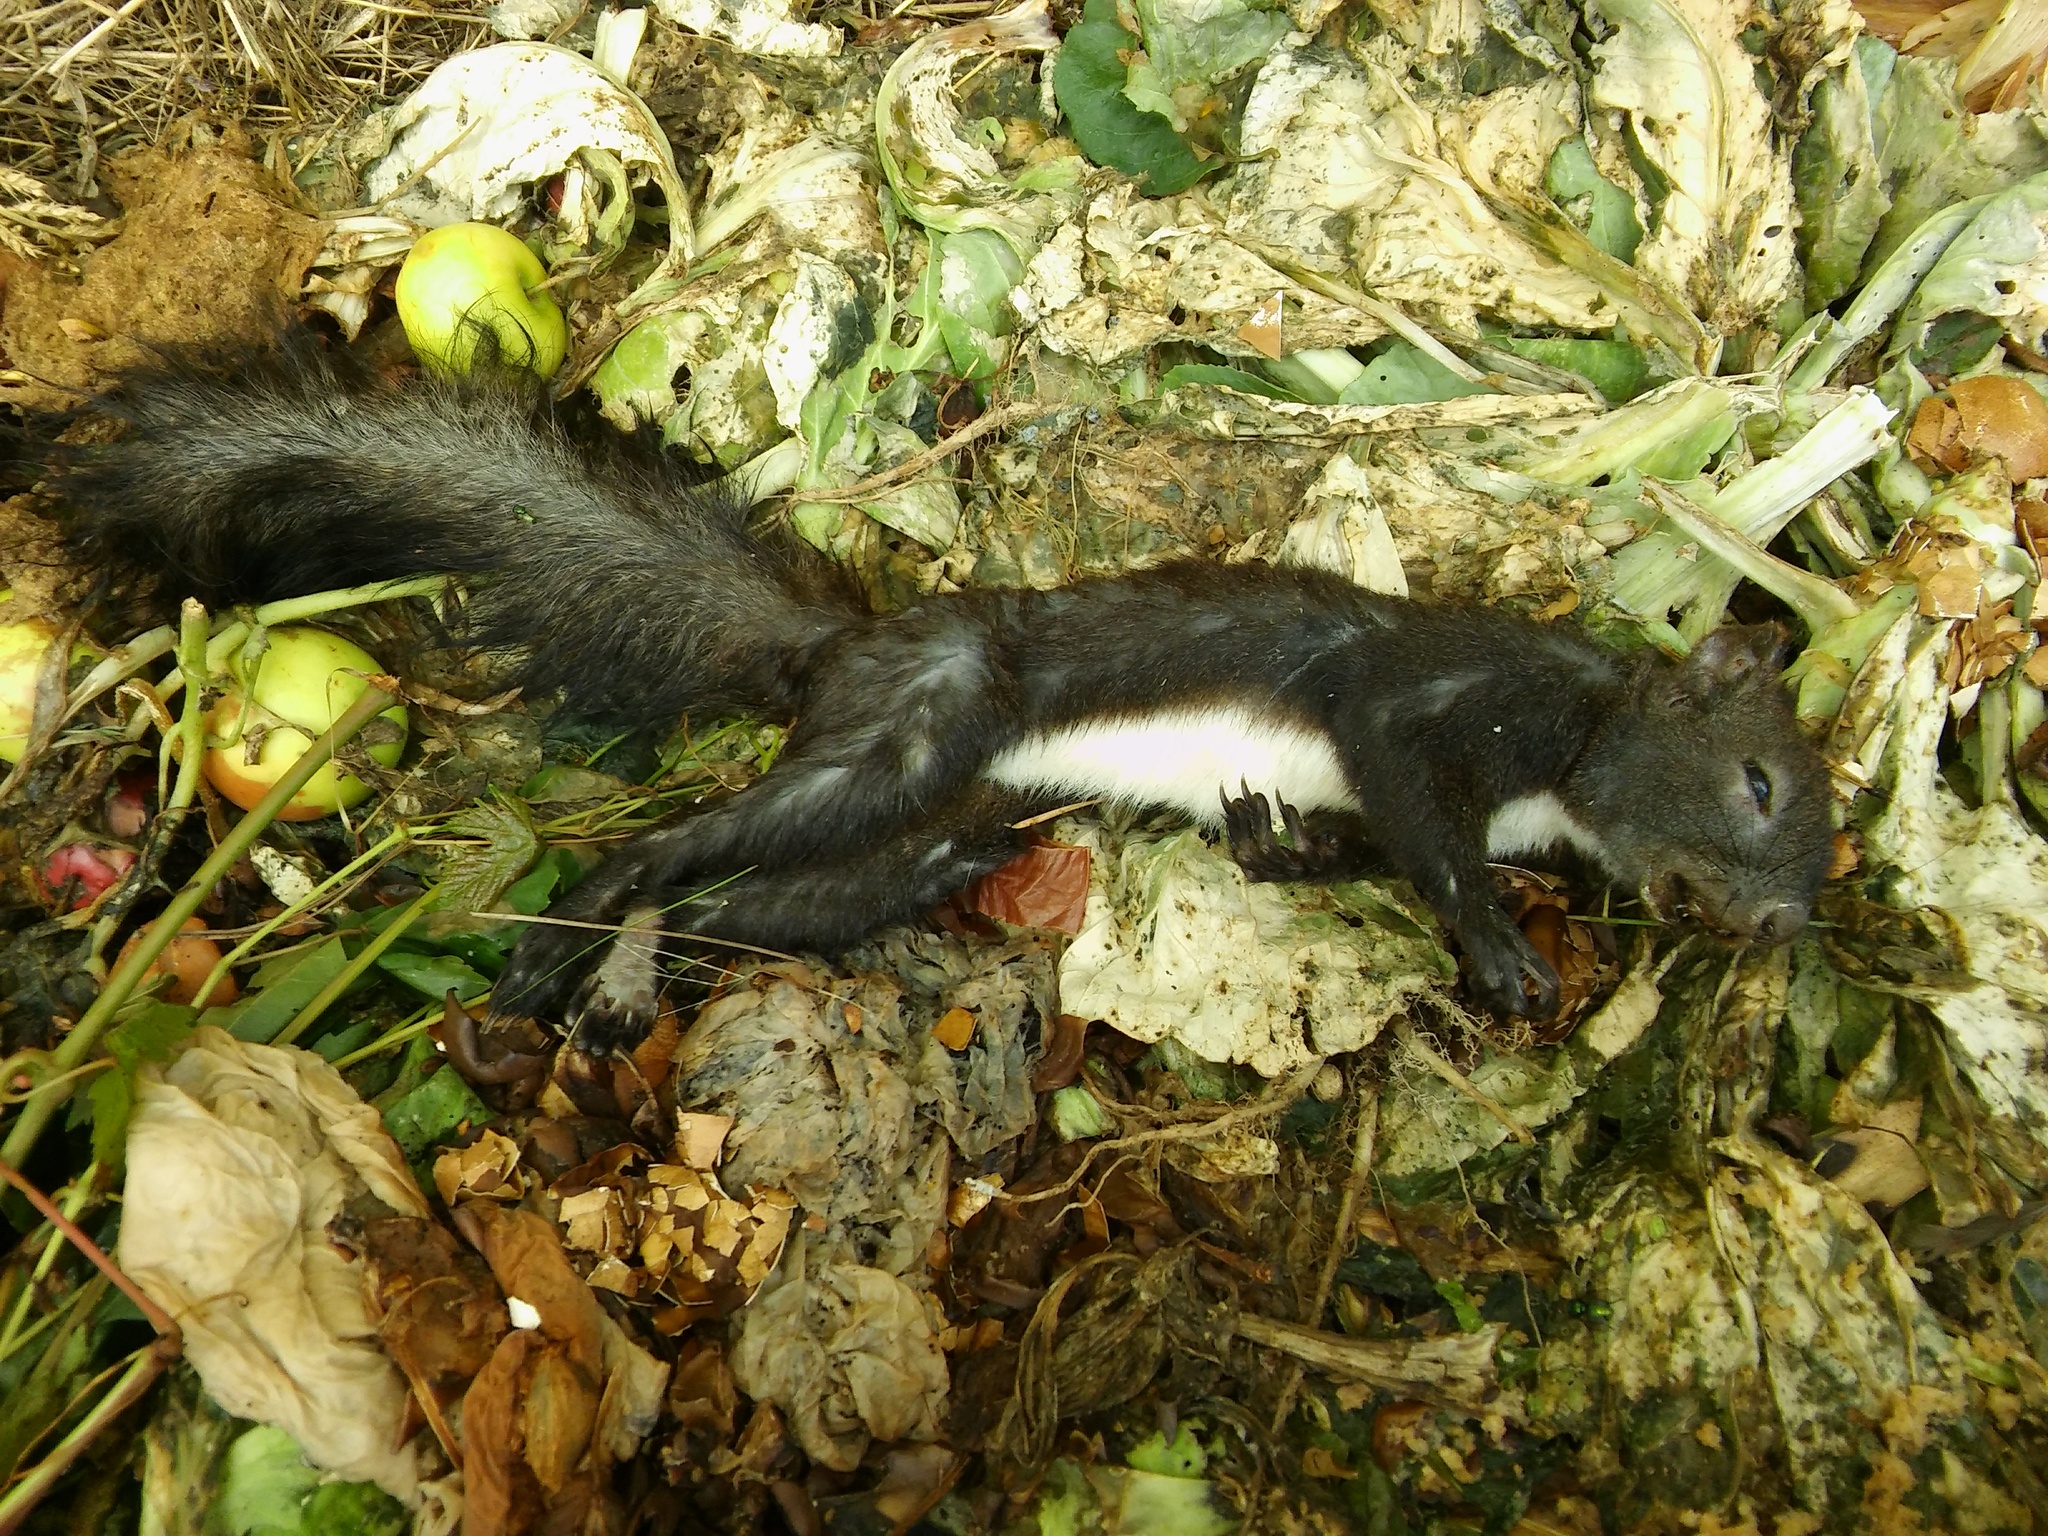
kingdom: Animalia
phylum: Chordata
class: Mammalia
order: Rodentia
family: Sciuridae
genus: Sciurus
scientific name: Sciurus vulgaris
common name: Eurasian red squirrel
